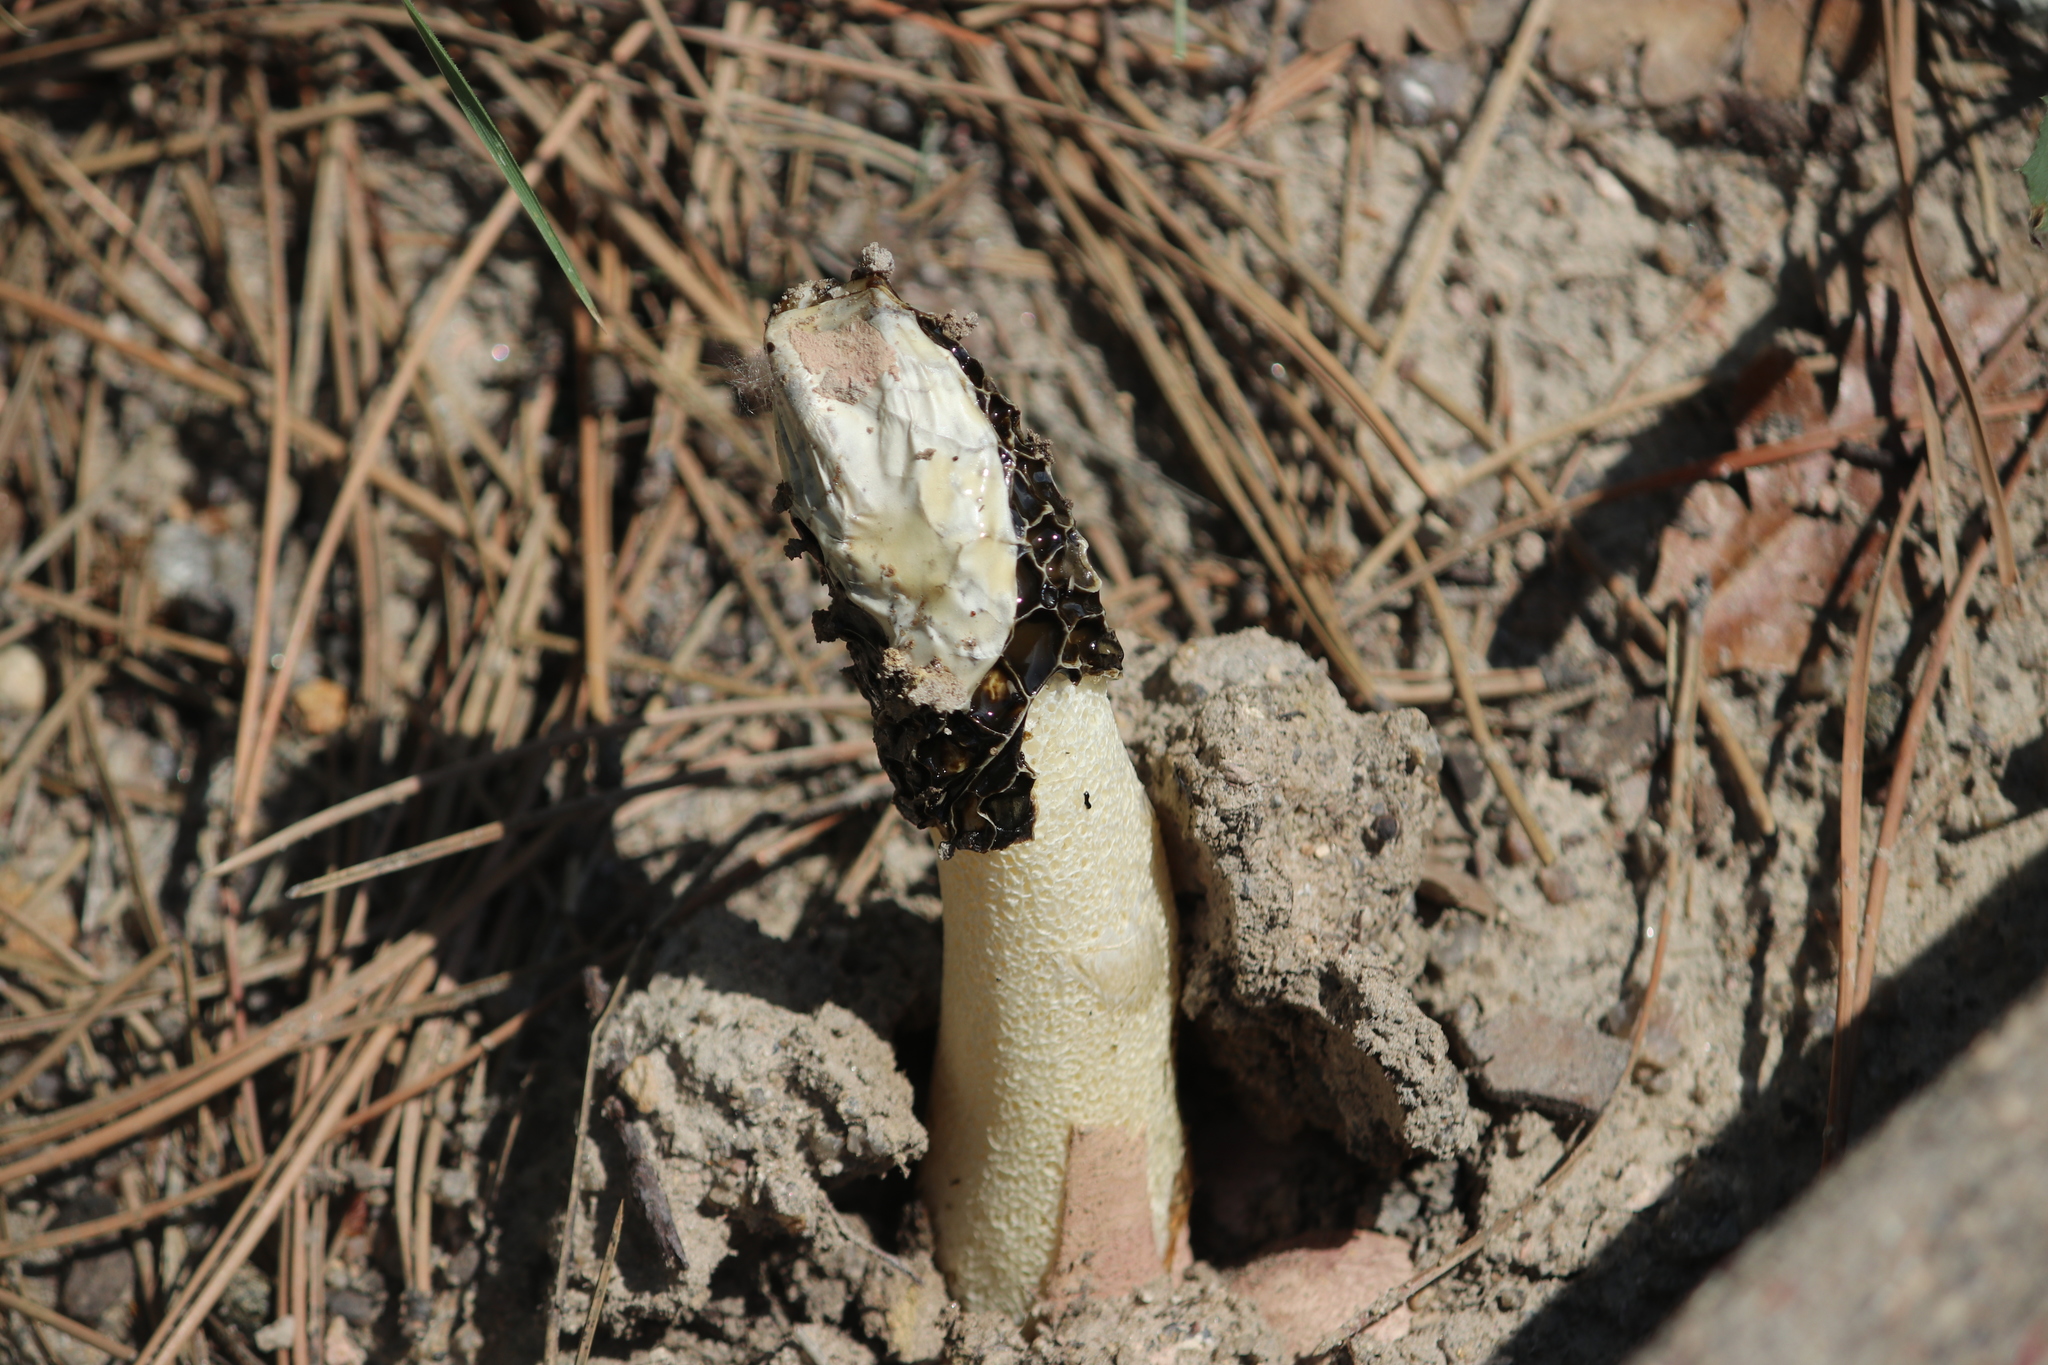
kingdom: Fungi
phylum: Basidiomycota
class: Agaricomycetes
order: Phallales
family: Phallaceae
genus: Phallus
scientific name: Phallus hadriani
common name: Sand stinkhorn
